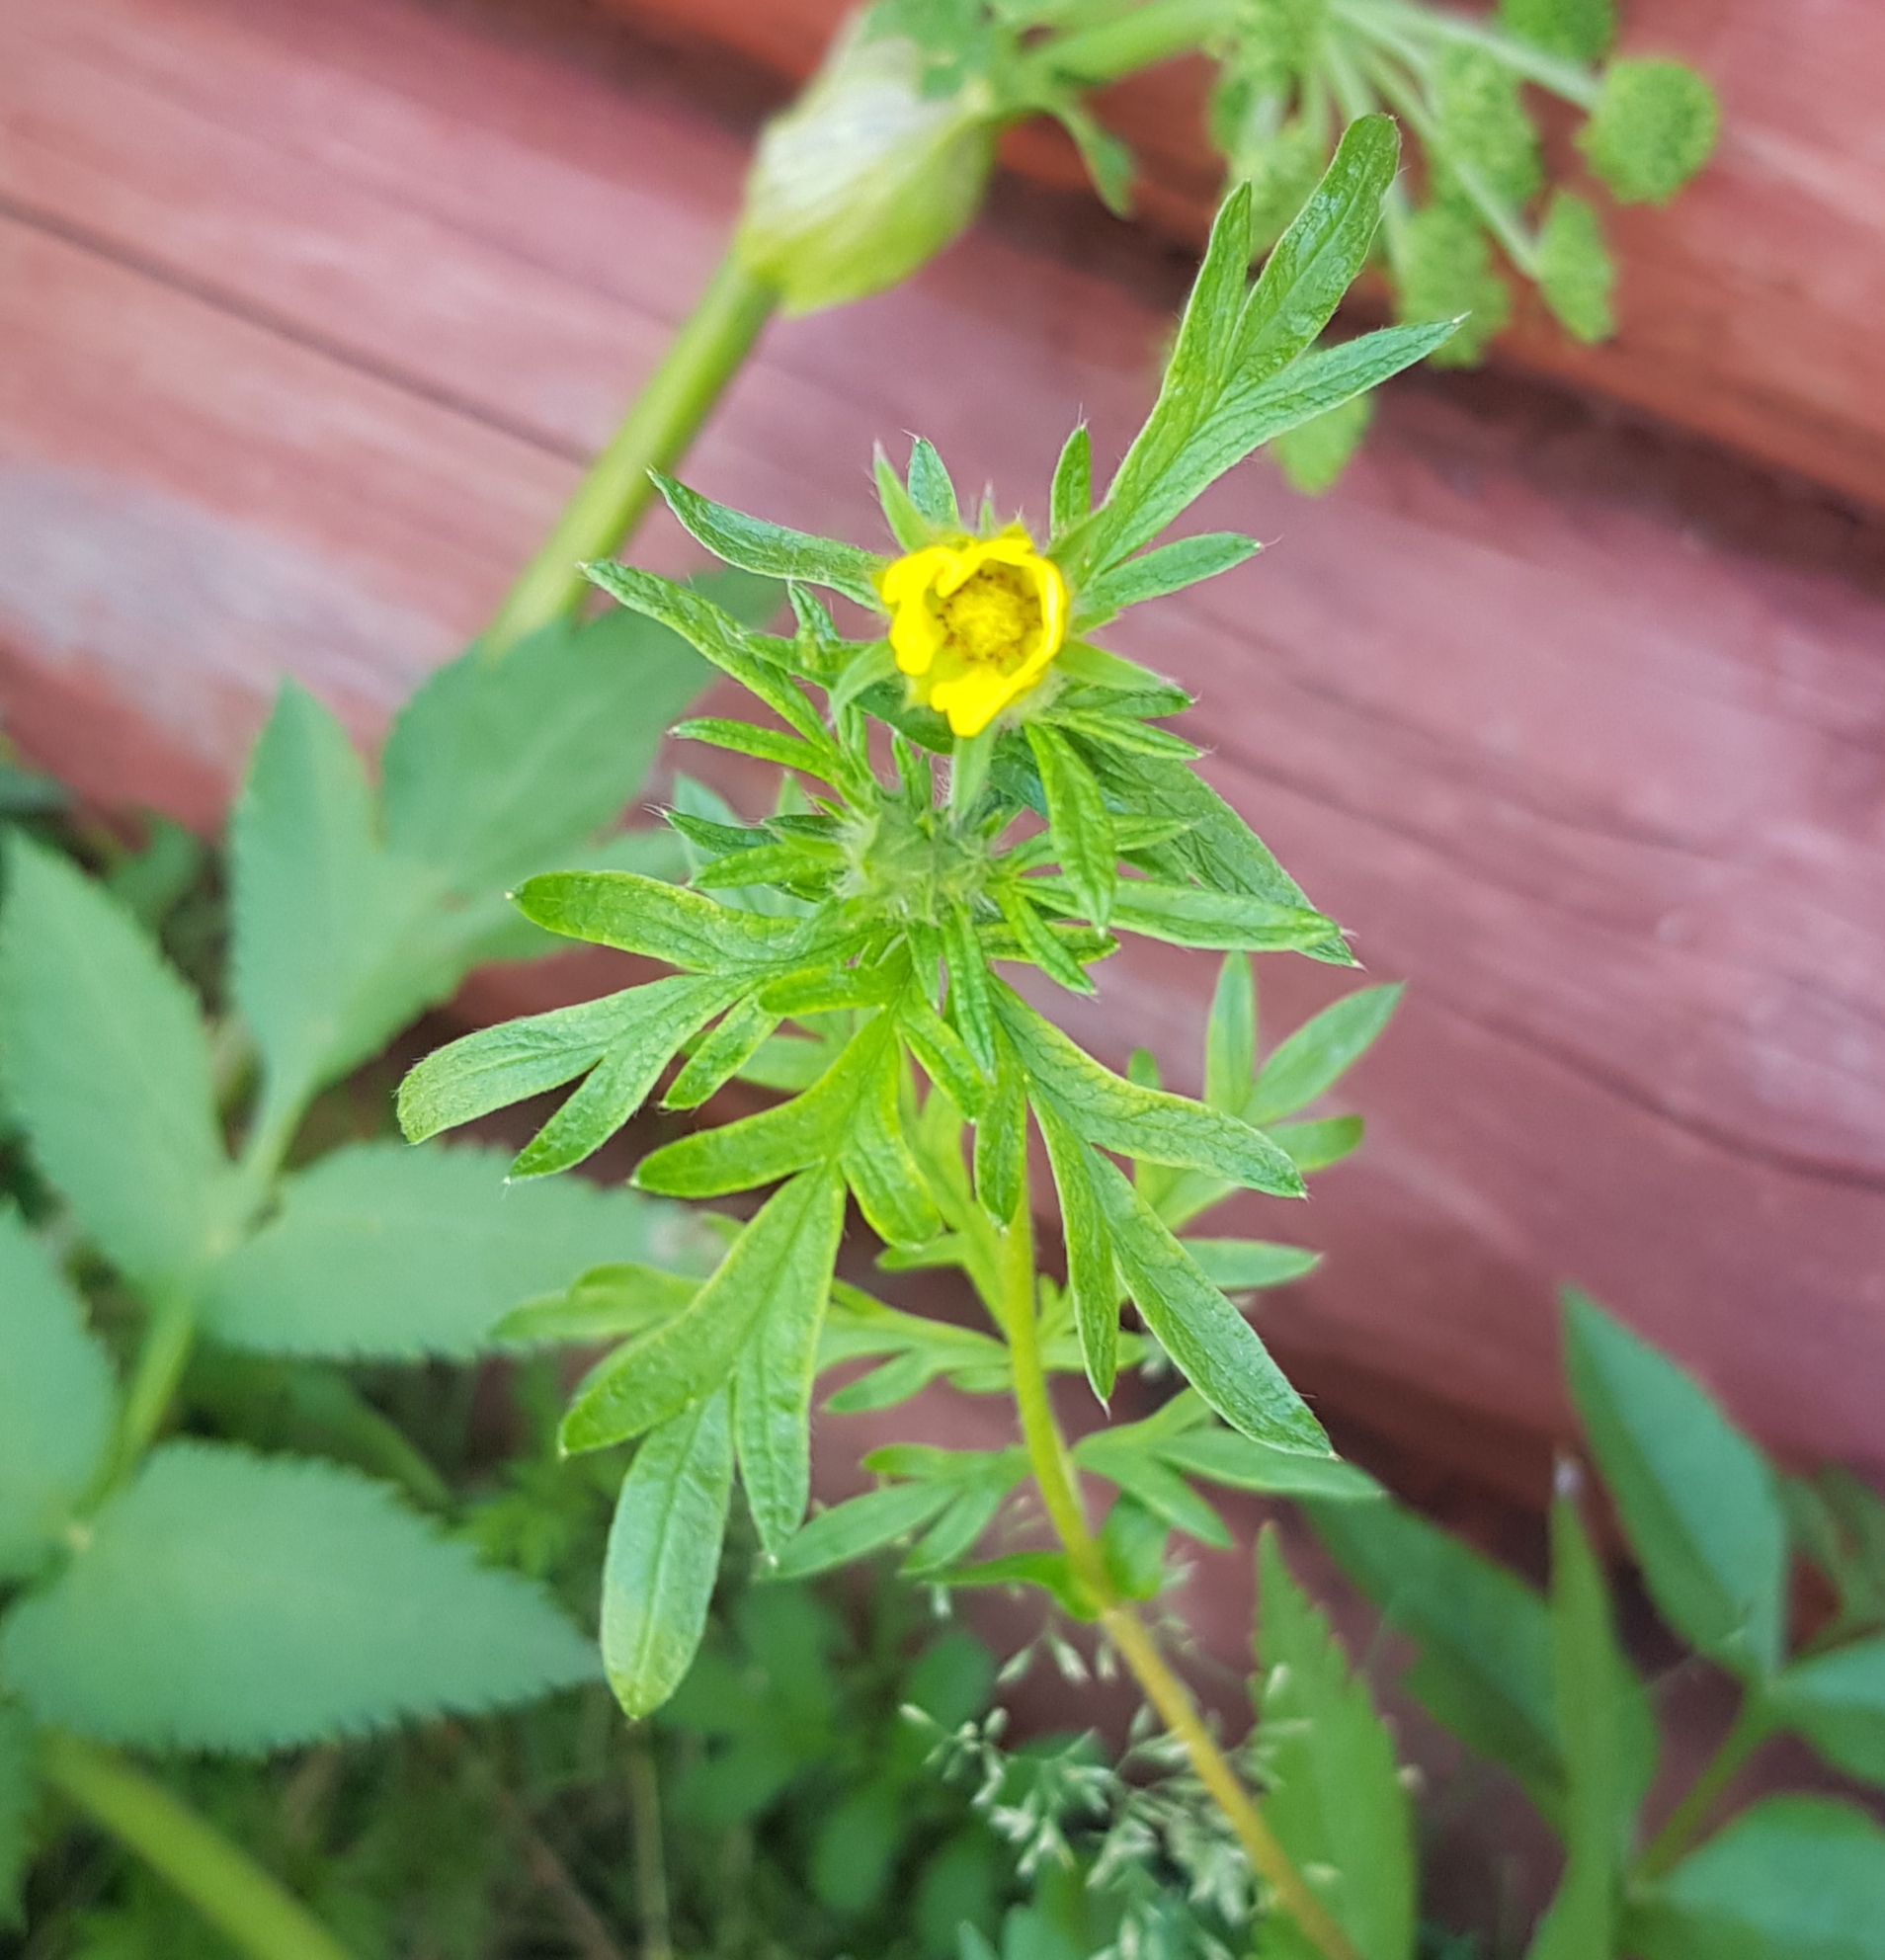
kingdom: Plantae
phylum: Tracheophyta
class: Magnoliopsida
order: Rosales
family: Rosaceae
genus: Potentilla
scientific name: Potentilla supina
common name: Prostrate cinquefoil
